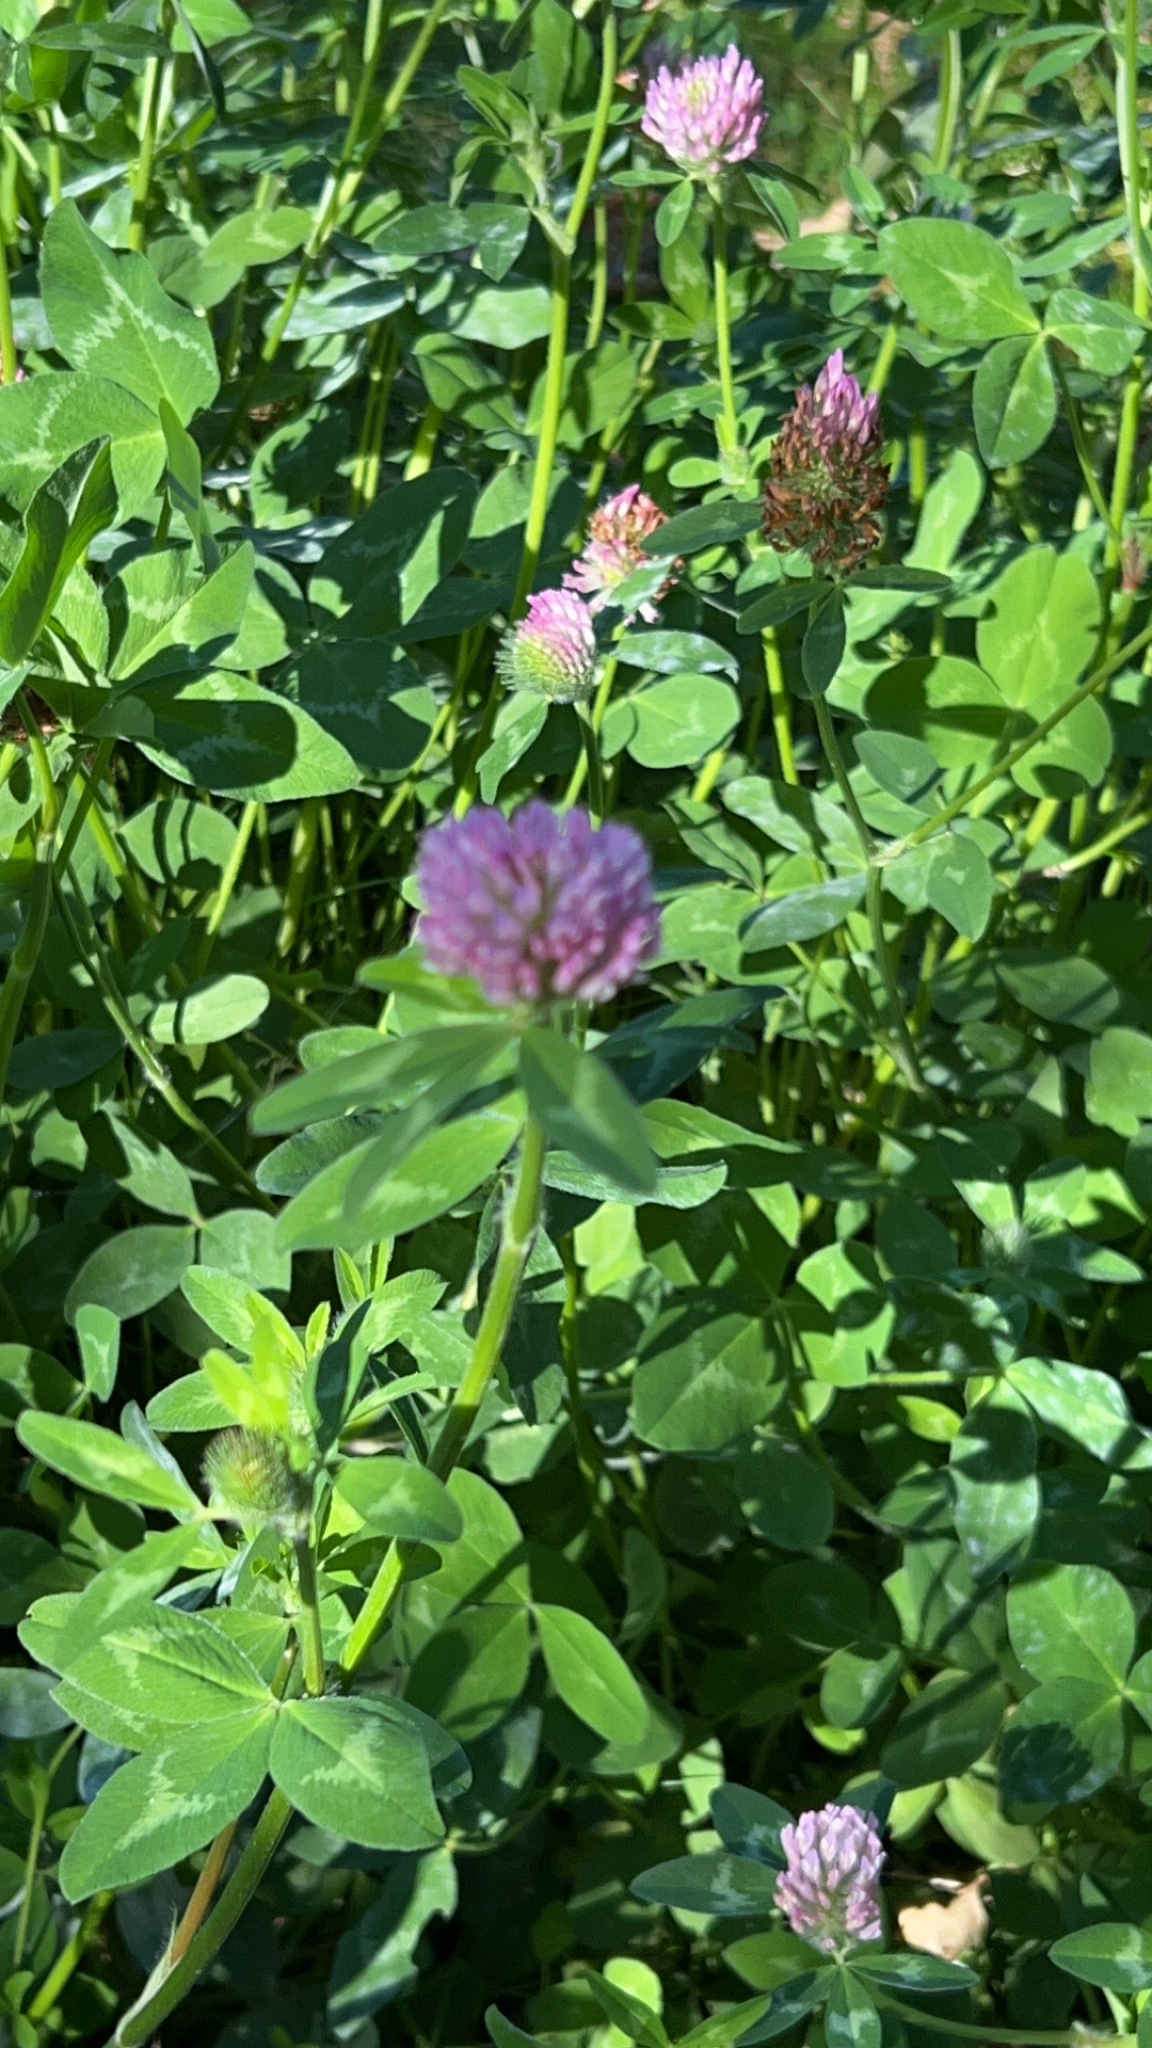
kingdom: Plantae
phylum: Tracheophyta
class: Magnoliopsida
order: Fabales
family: Fabaceae
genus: Trifolium
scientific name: Trifolium pratense
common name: Red clover
